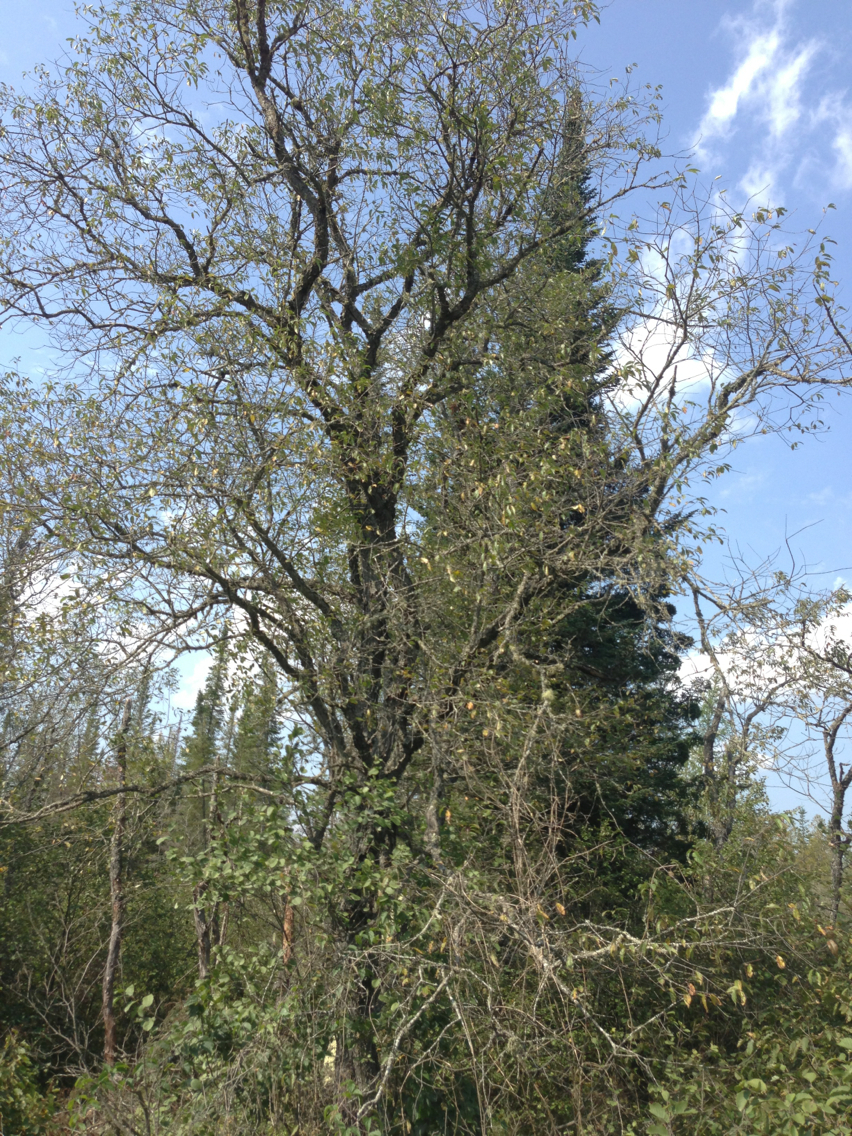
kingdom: Plantae
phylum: Tracheophyta
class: Magnoliopsida
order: Rosales
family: Rosaceae
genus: Prunus
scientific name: Prunus serotina
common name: Black cherry
